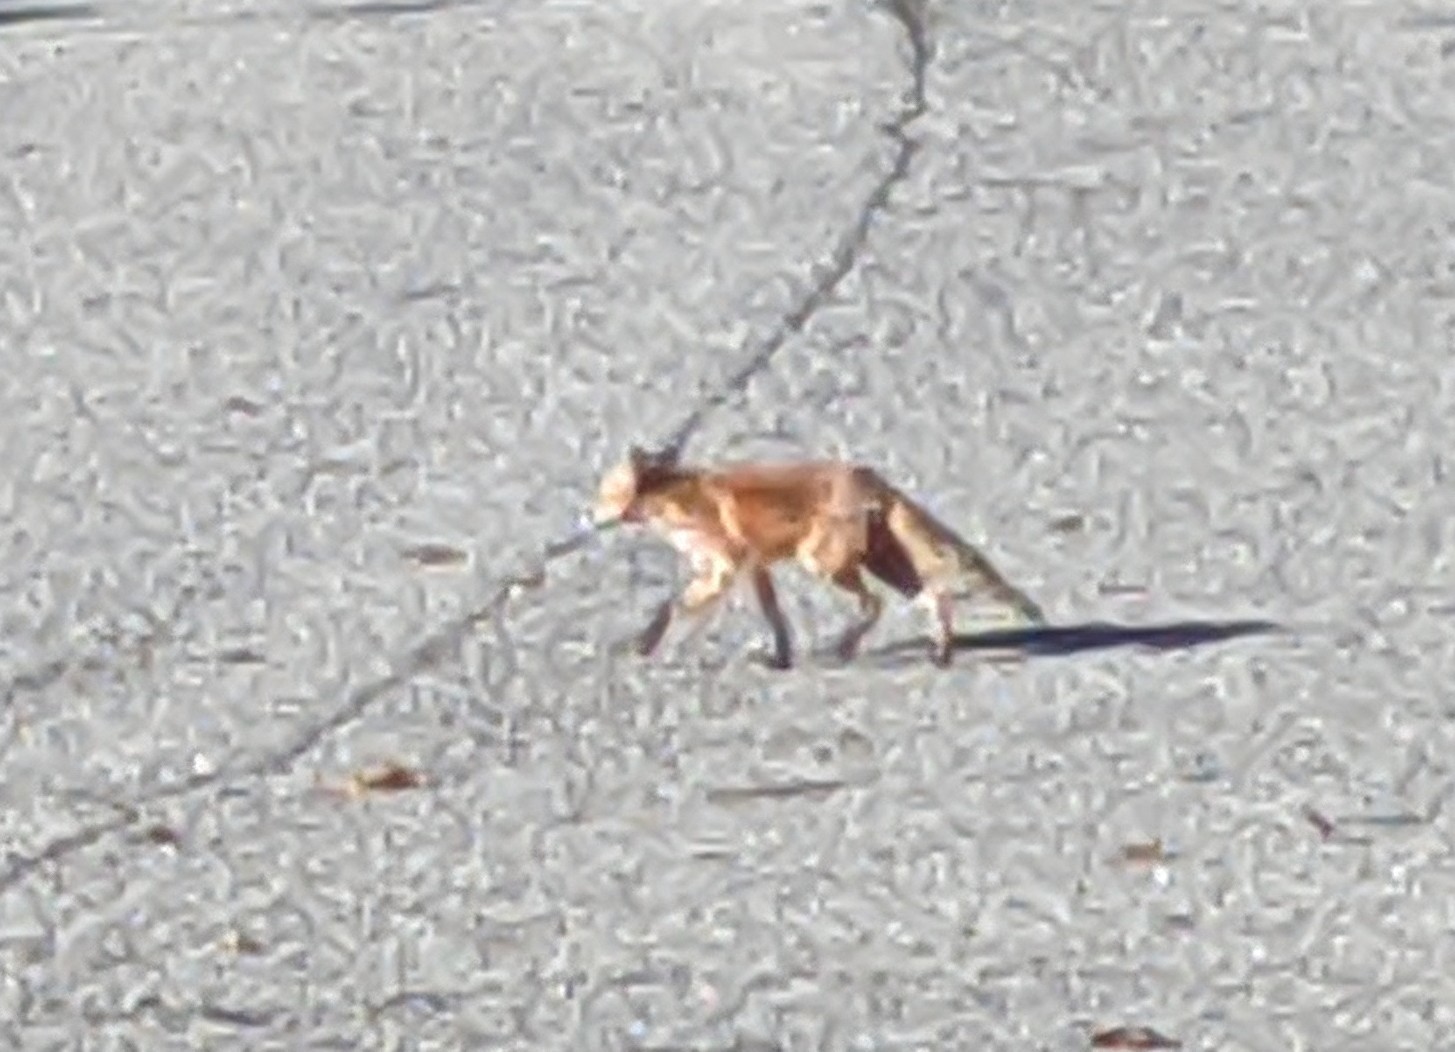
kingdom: Animalia
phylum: Chordata
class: Mammalia
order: Carnivora
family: Canidae
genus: Vulpes
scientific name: Vulpes vulpes
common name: Red fox
